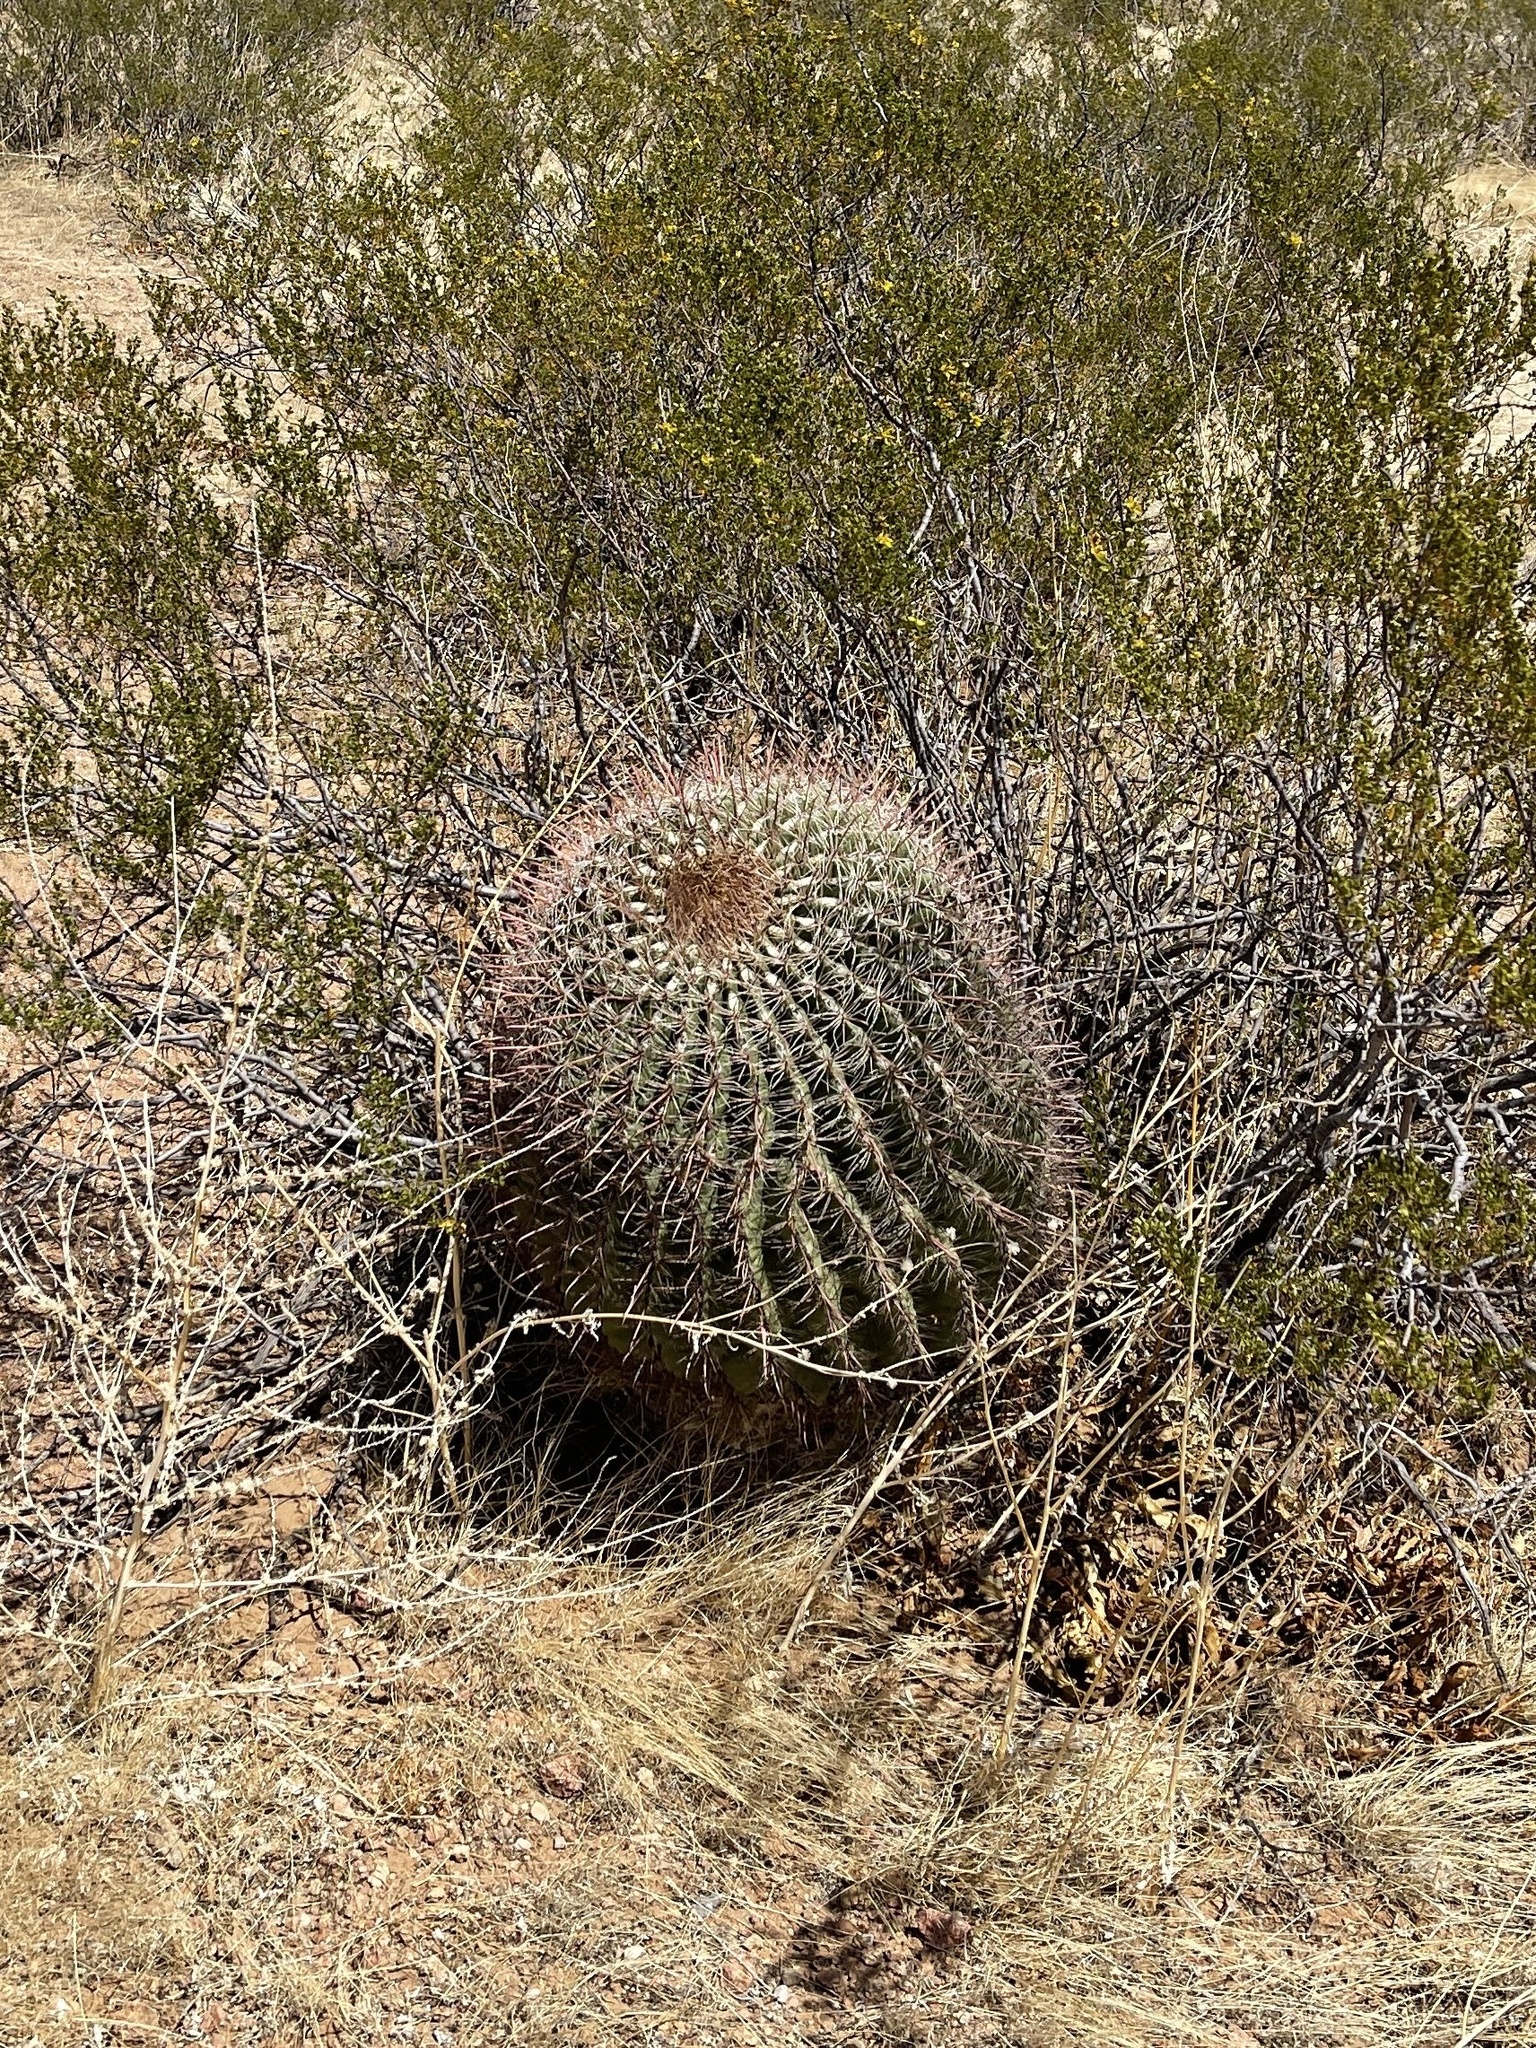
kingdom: Plantae
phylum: Tracheophyta
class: Magnoliopsida
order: Caryophyllales
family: Cactaceae
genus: Ferocactus
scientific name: Ferocactus wislizeni
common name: Candy barrel cactus
